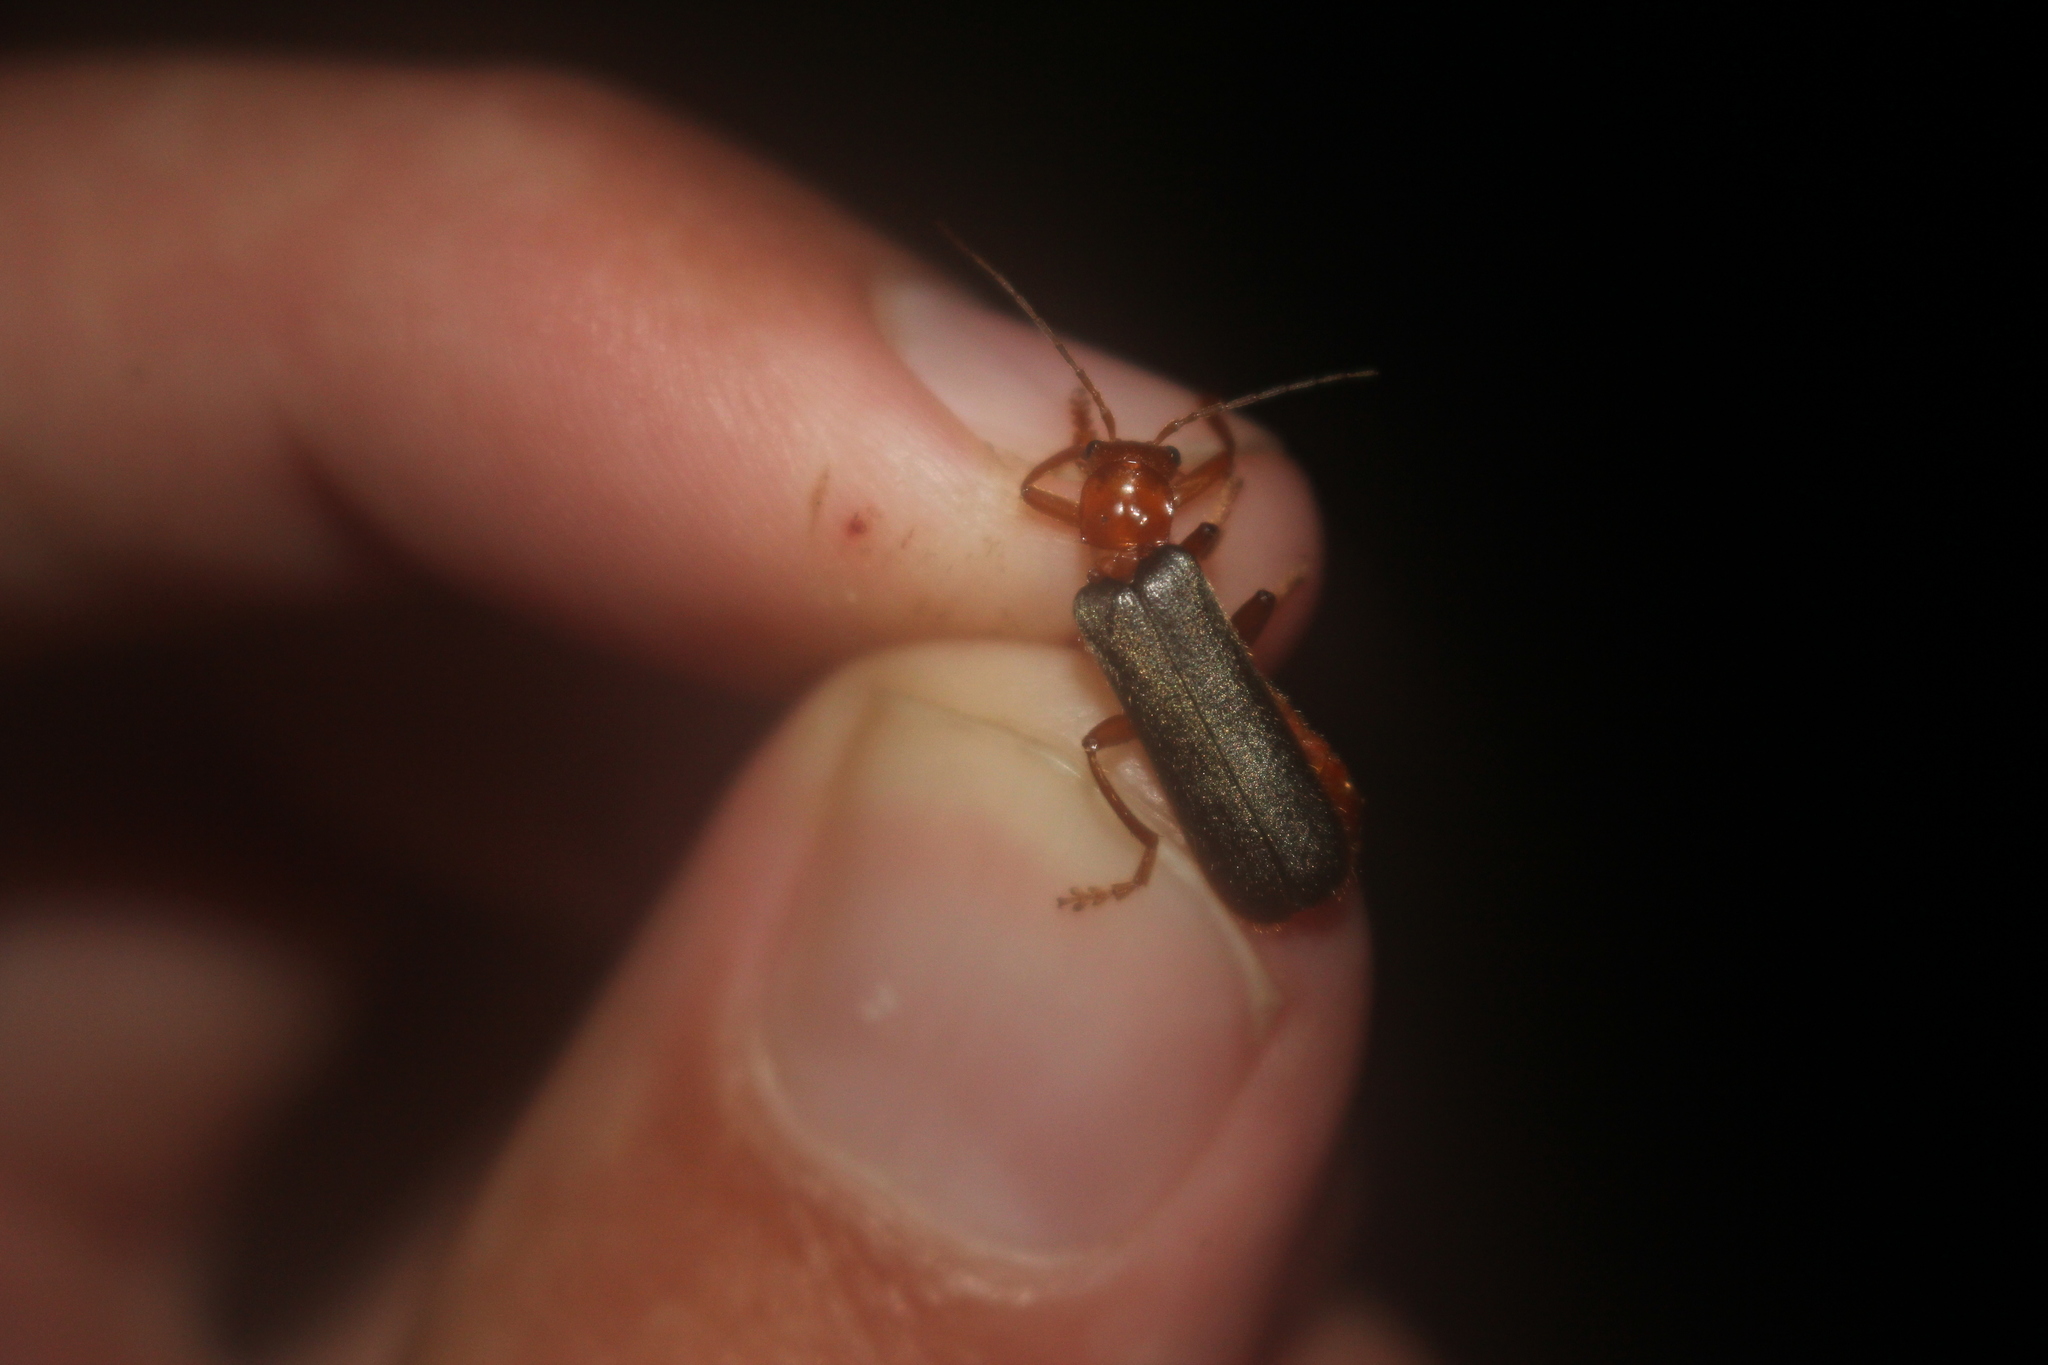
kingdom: Animalia
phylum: Arthropoda
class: Insecta
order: Coleoptera
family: Cantharidae
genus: Pacificanthia
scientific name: Pacificanthia rotundicollis
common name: Brown leatherwing beetle
